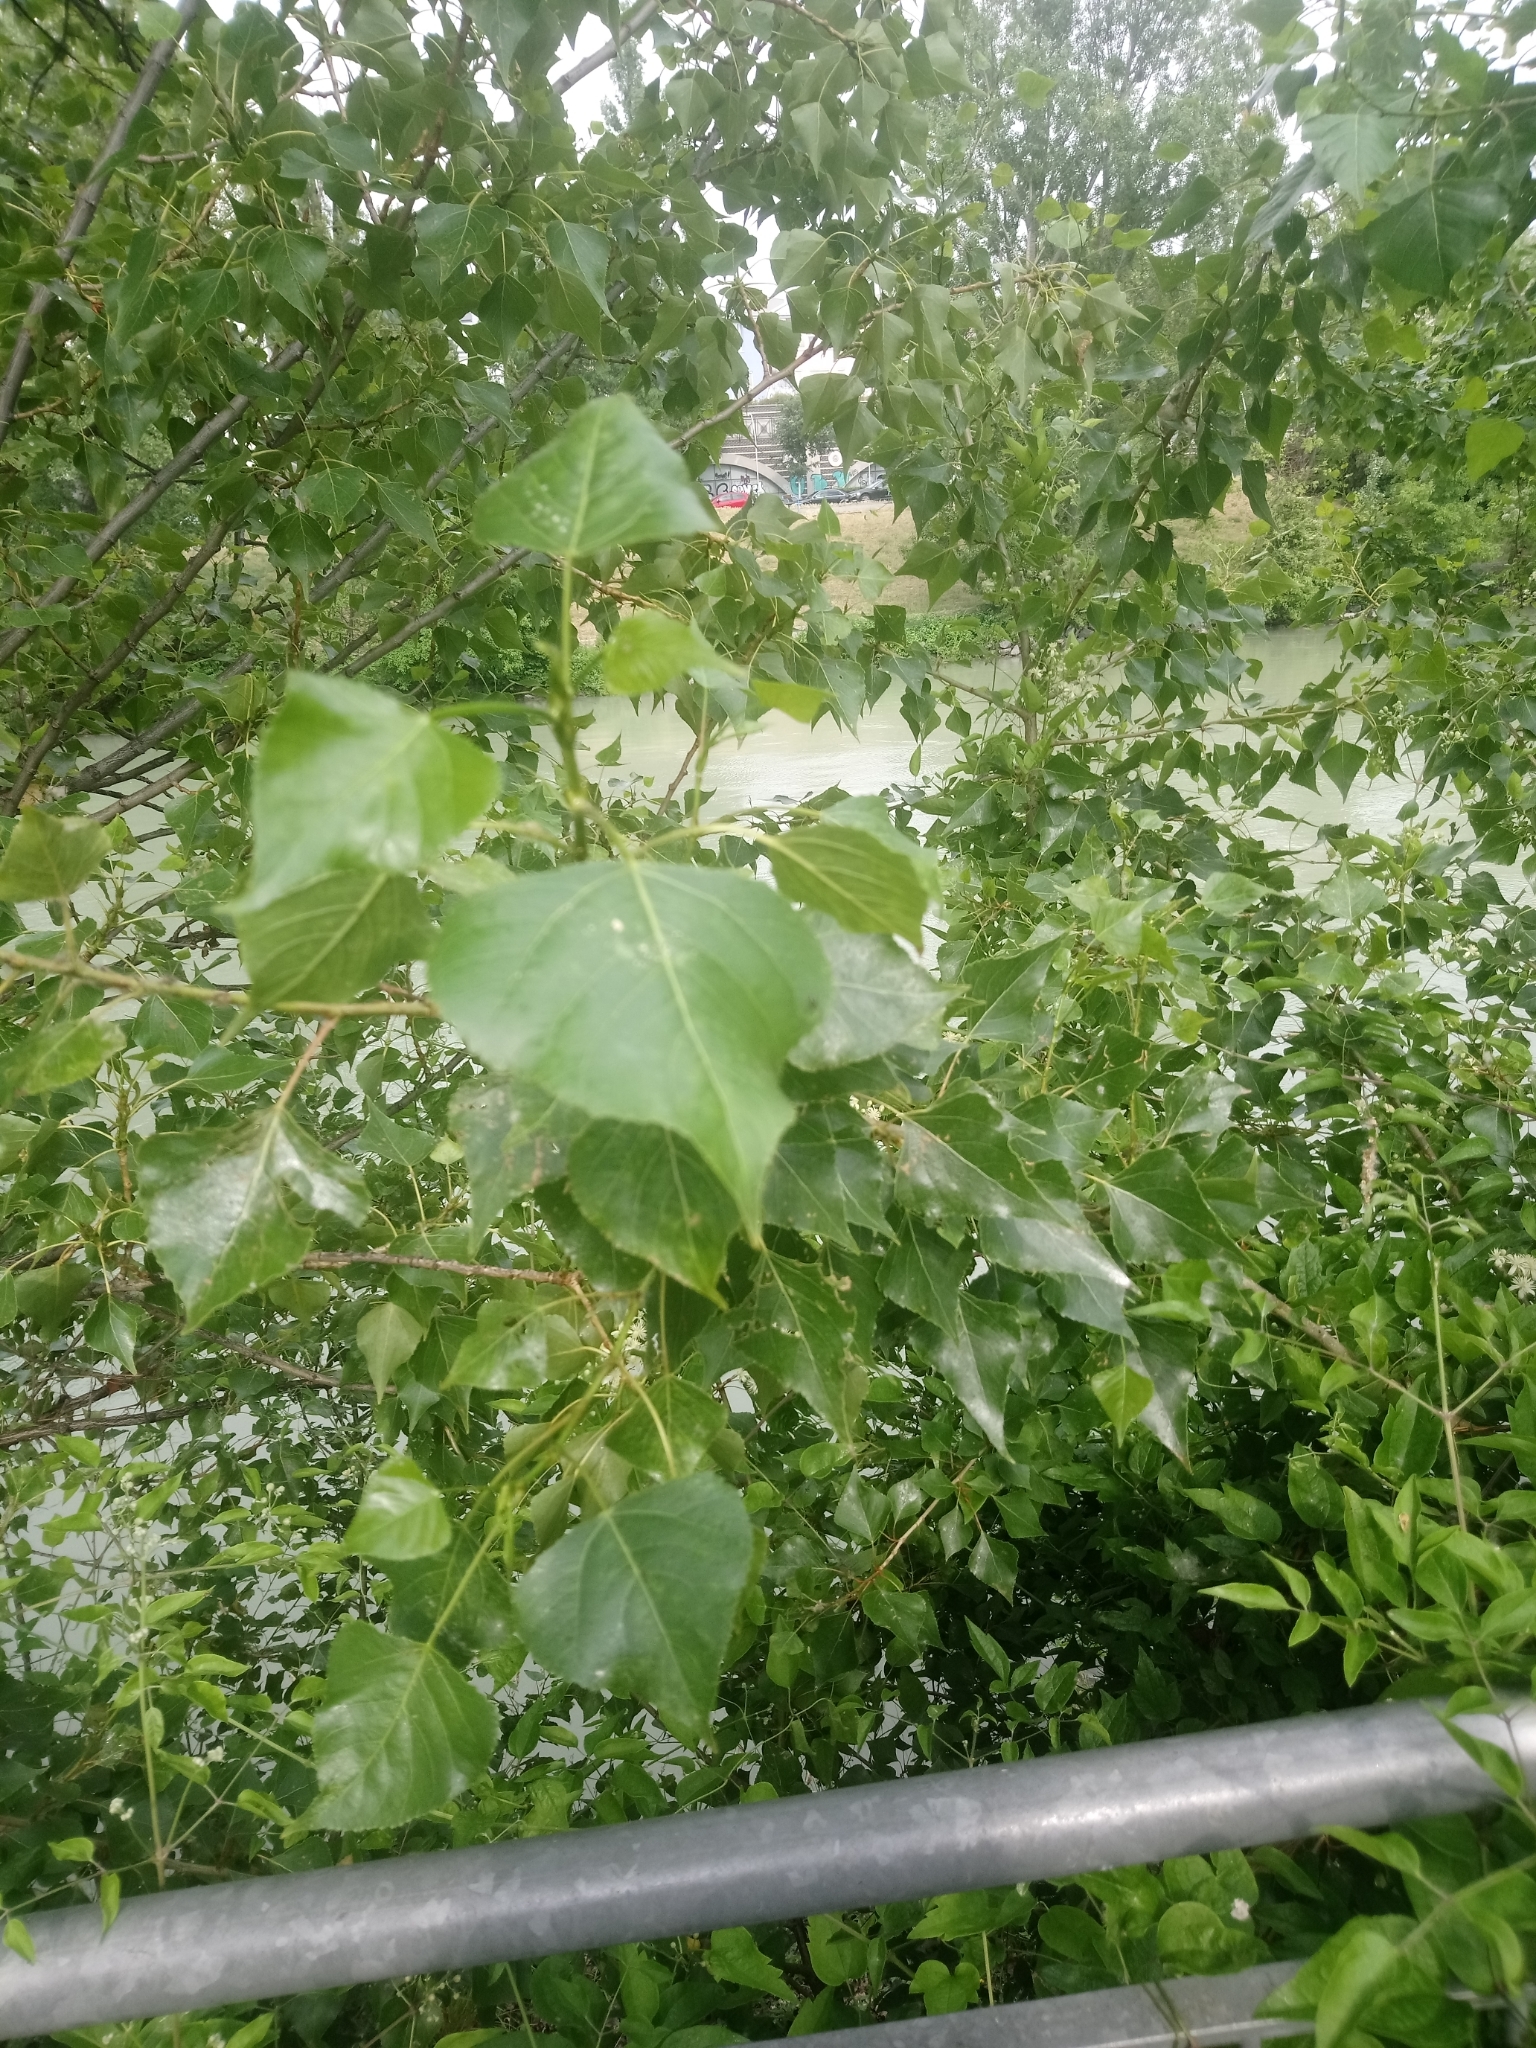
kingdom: Plantae
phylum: Tracheophyta
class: Magnoliopsida
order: Malpighiales
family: Salicaceae
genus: Populus
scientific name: Populus nigra
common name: Black poplar
